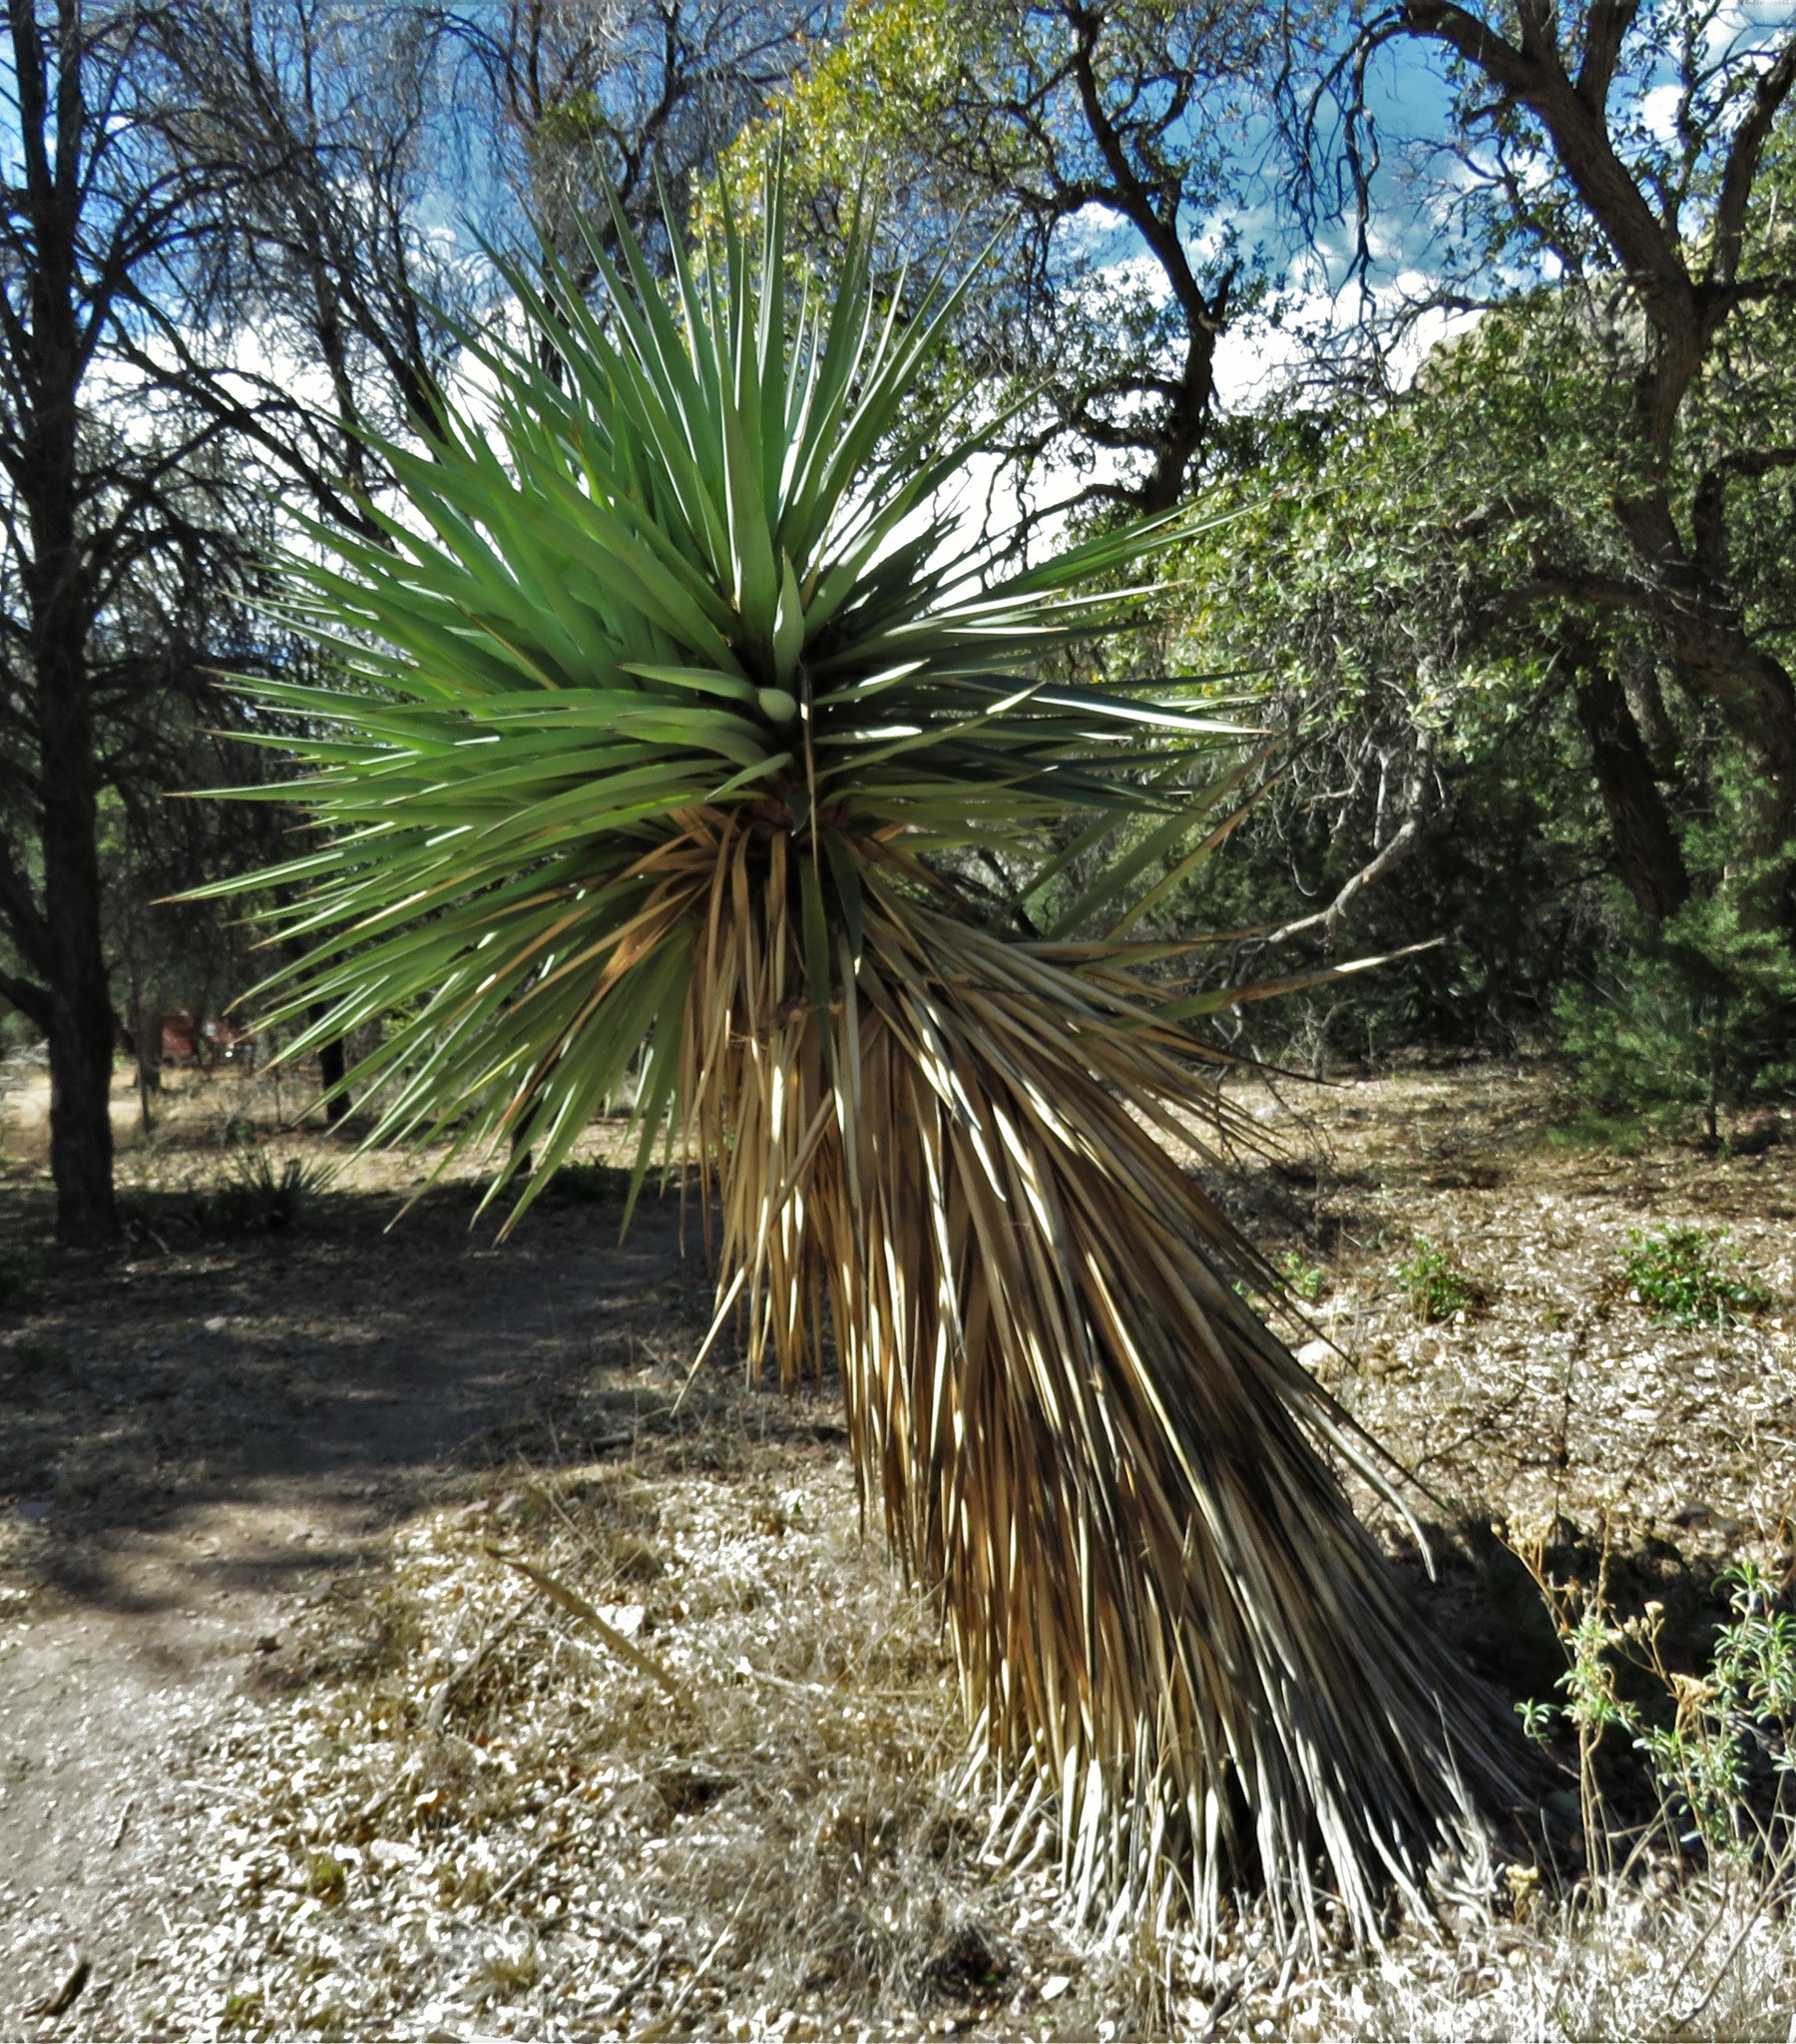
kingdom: Plantae
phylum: Tracheophyta
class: Liliopsida
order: Asparagales
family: Asparagaceae
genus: Yucca
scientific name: Yucca madrensis
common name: Hoary yucca
